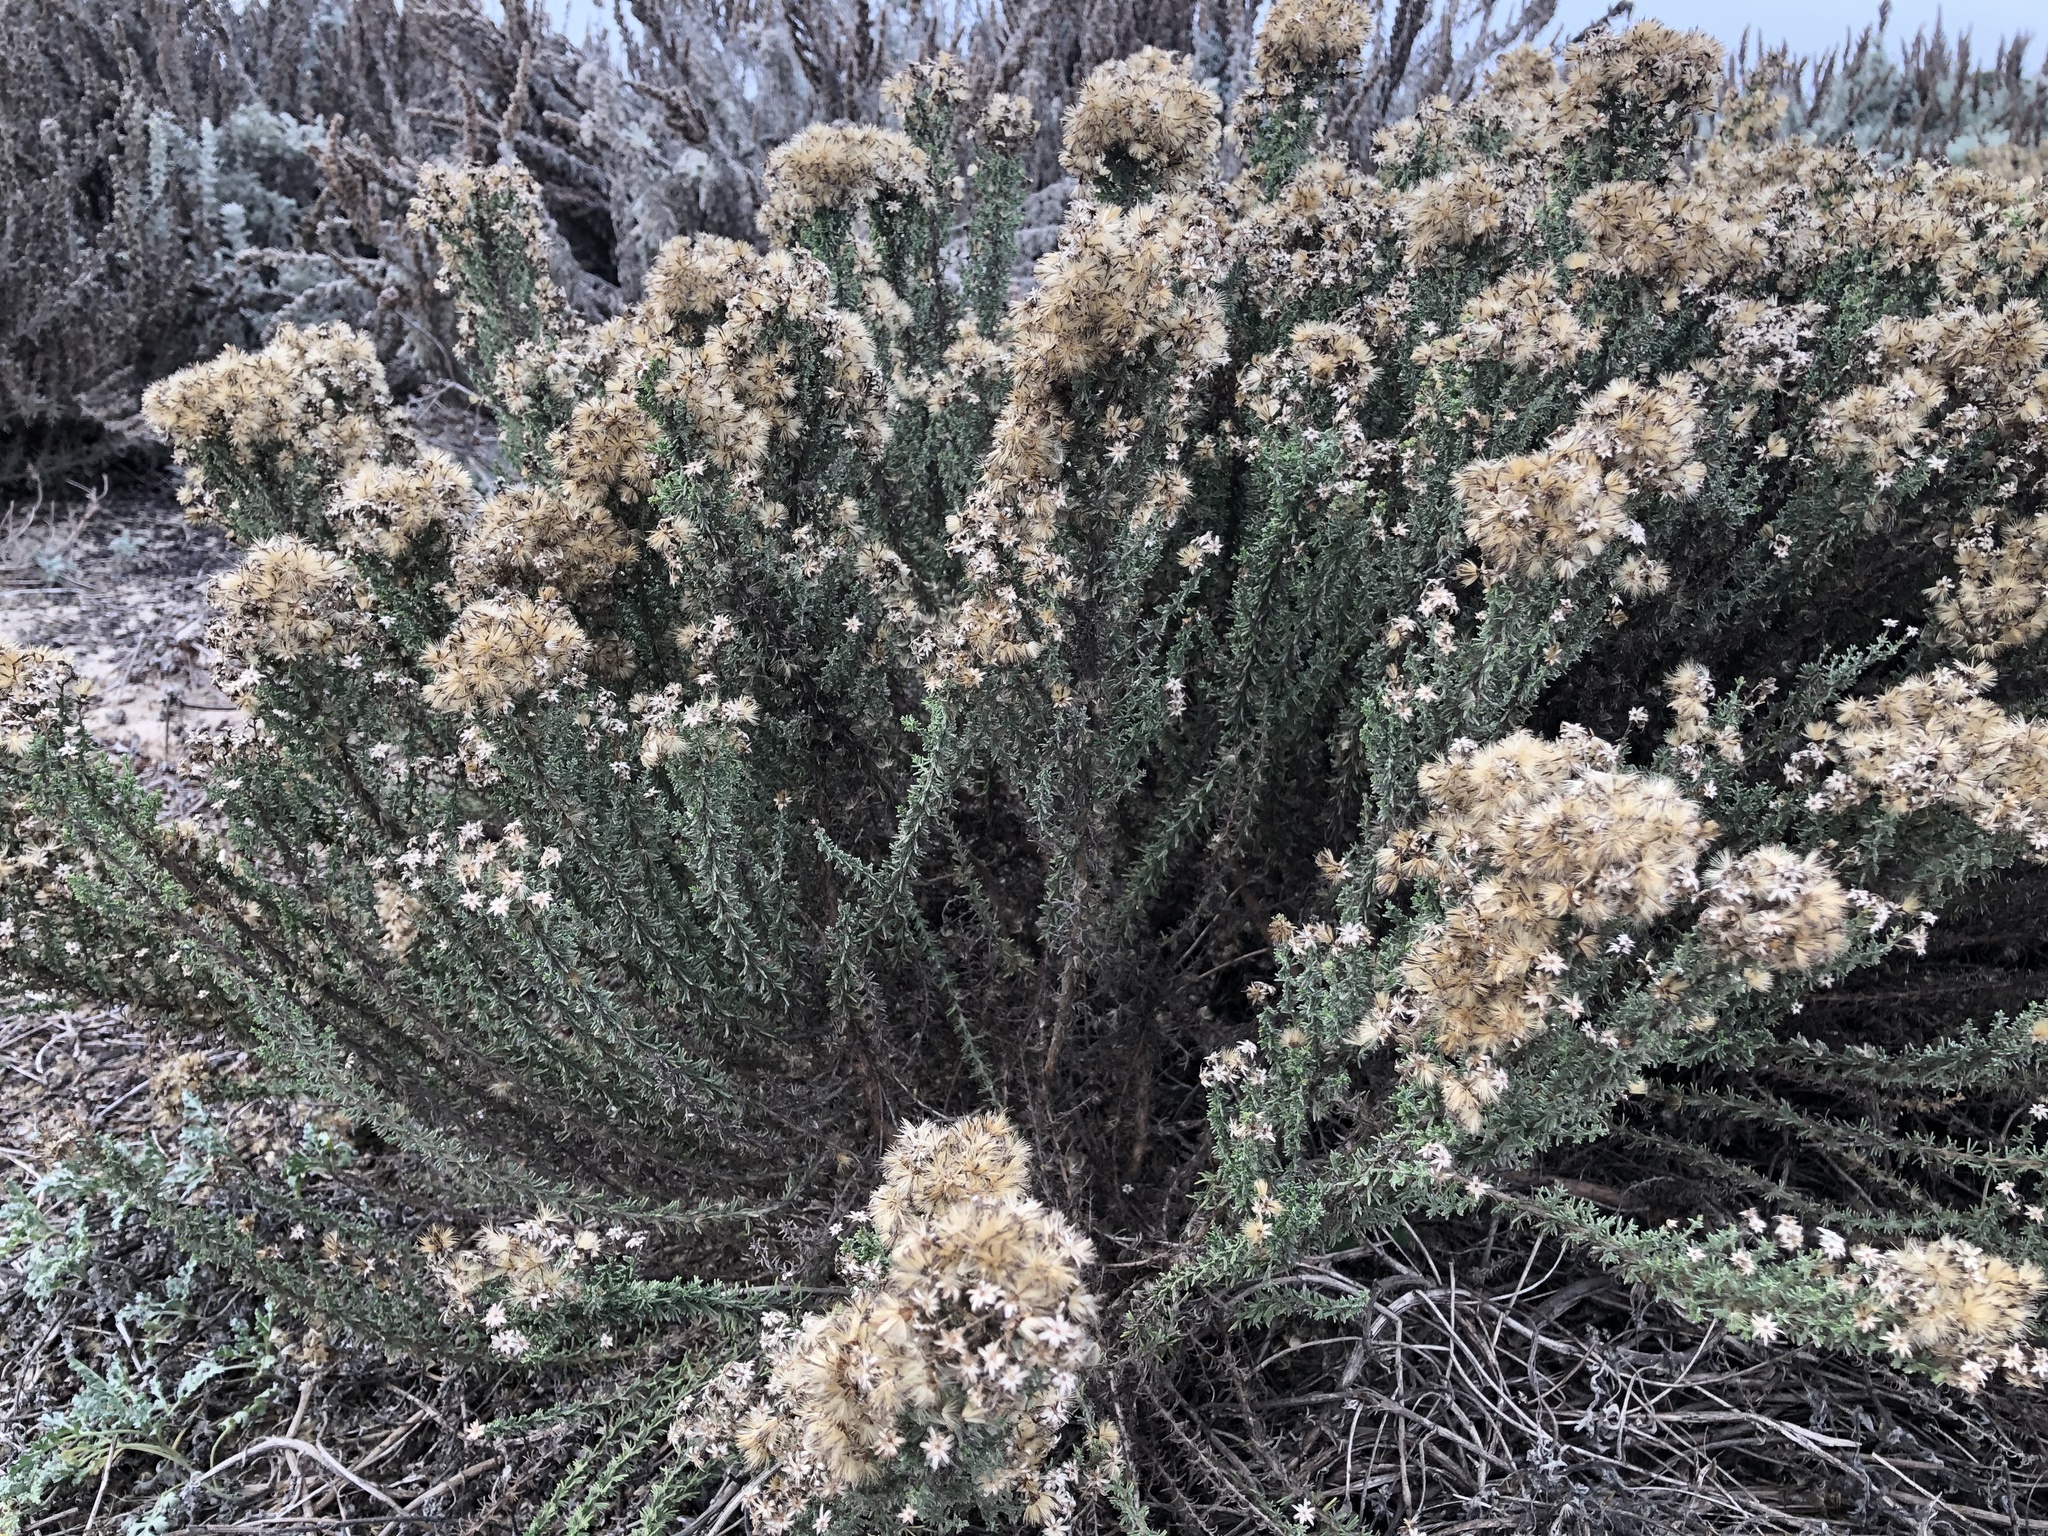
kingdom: Plantae
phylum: Tracheophyta
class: Magnoliopsida
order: Asterales
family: Asteraceae
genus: Ericameria
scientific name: Ericameria ericoides
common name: California goldenbush
